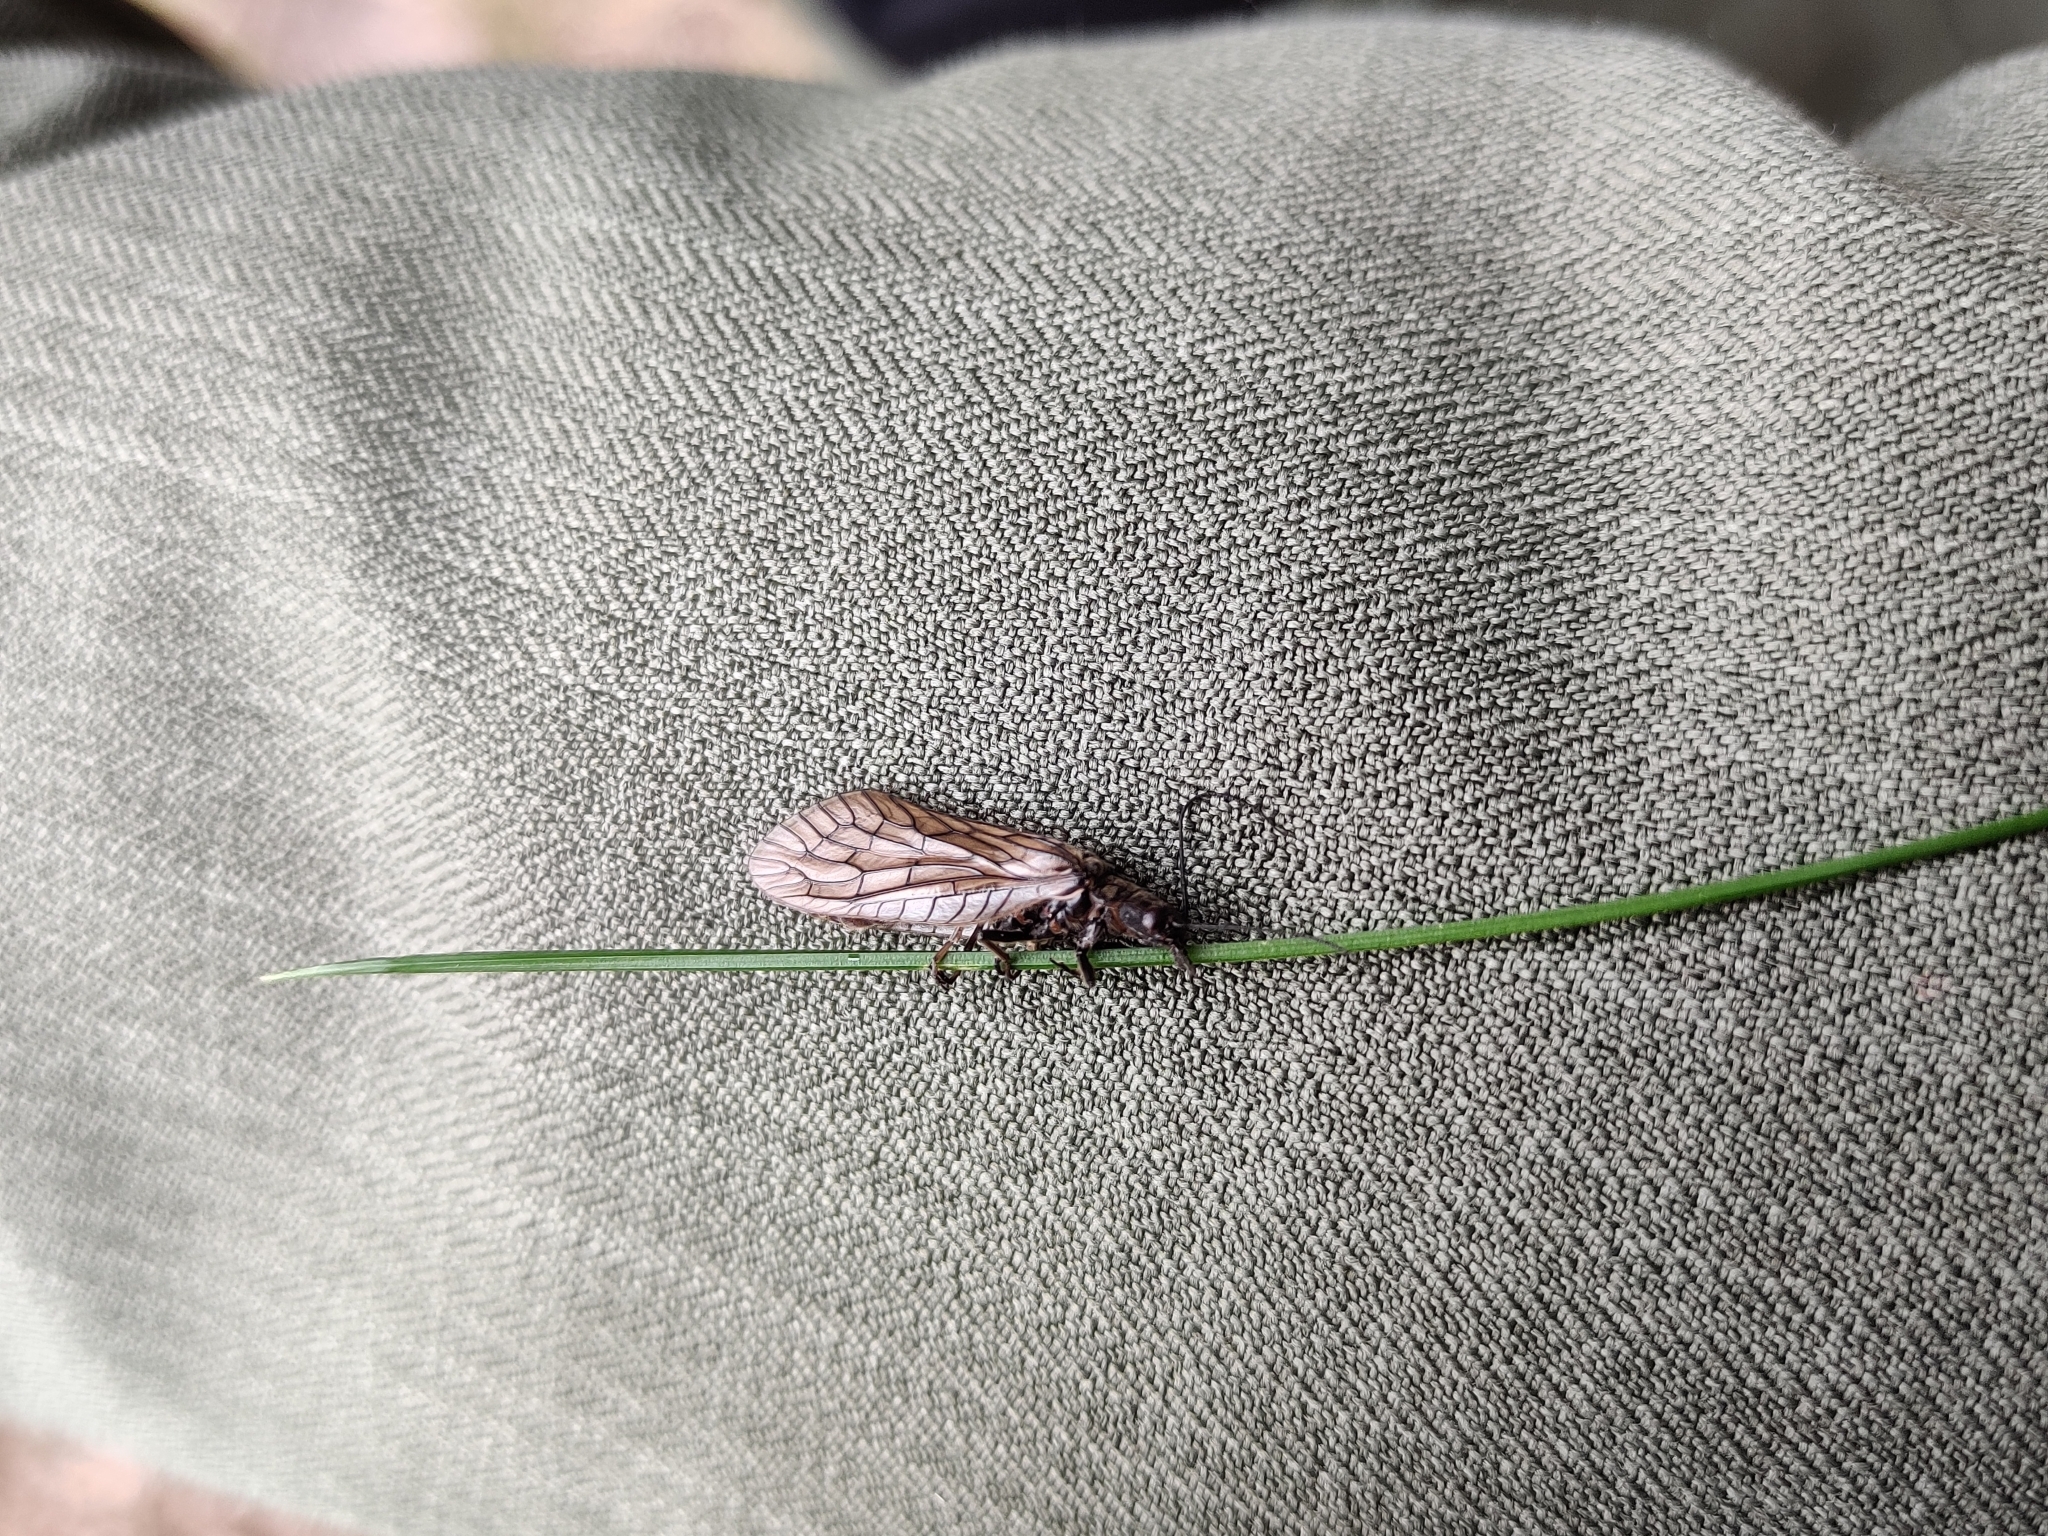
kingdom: Animalia
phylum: Arthropoda
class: Insecta
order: Megaloptera
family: Sialidae
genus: Sialis
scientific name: Sialis
